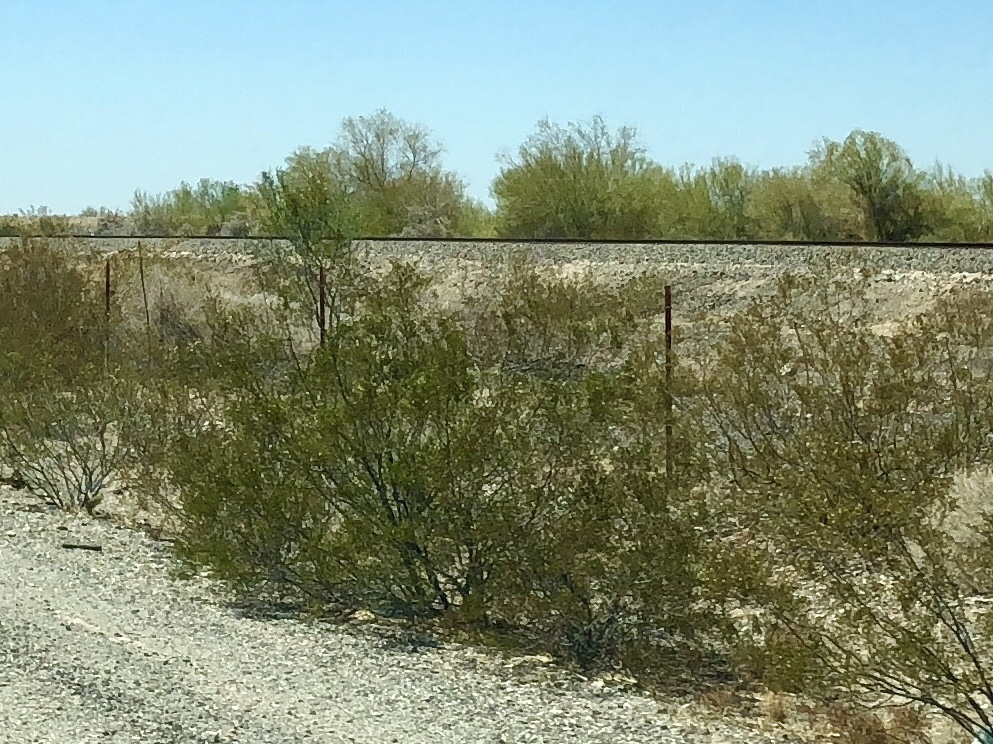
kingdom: Plantae
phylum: Tracheophyta
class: Magnoliopsida
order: Zygophyllales
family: Zygophyllaceae
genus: Larrea
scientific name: Larrea tridentata
